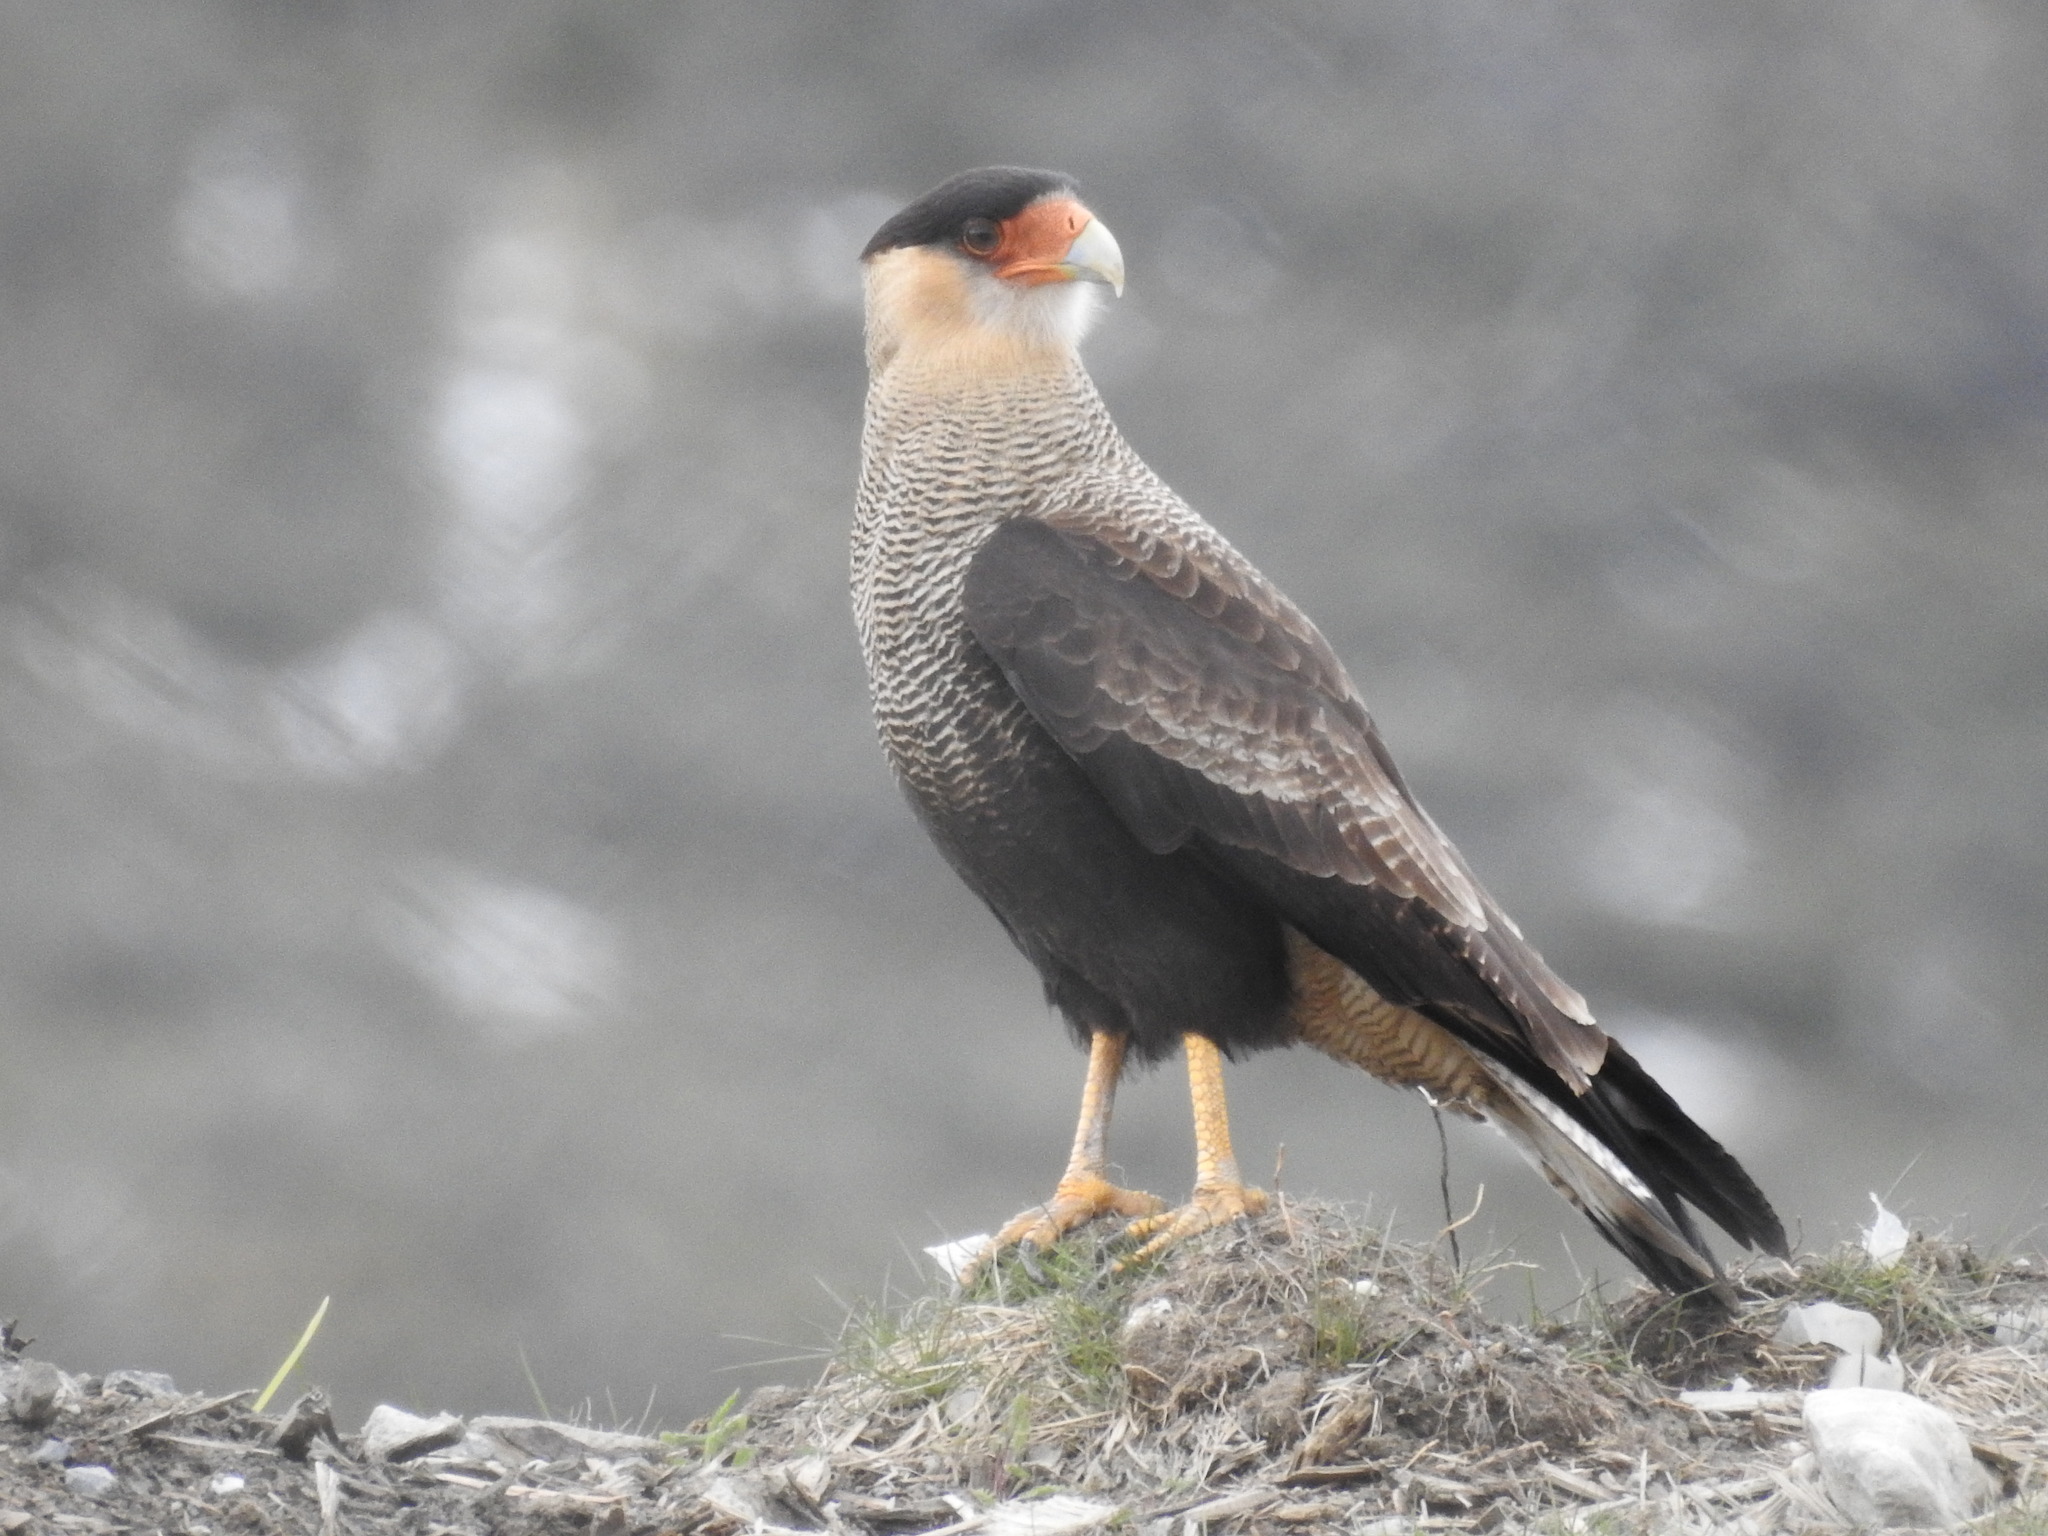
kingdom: Animalia
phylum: Chordata
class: Aves
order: Falconiformes
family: Falconidae
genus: Caracara
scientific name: Caracara plancus
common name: Southern caracara
